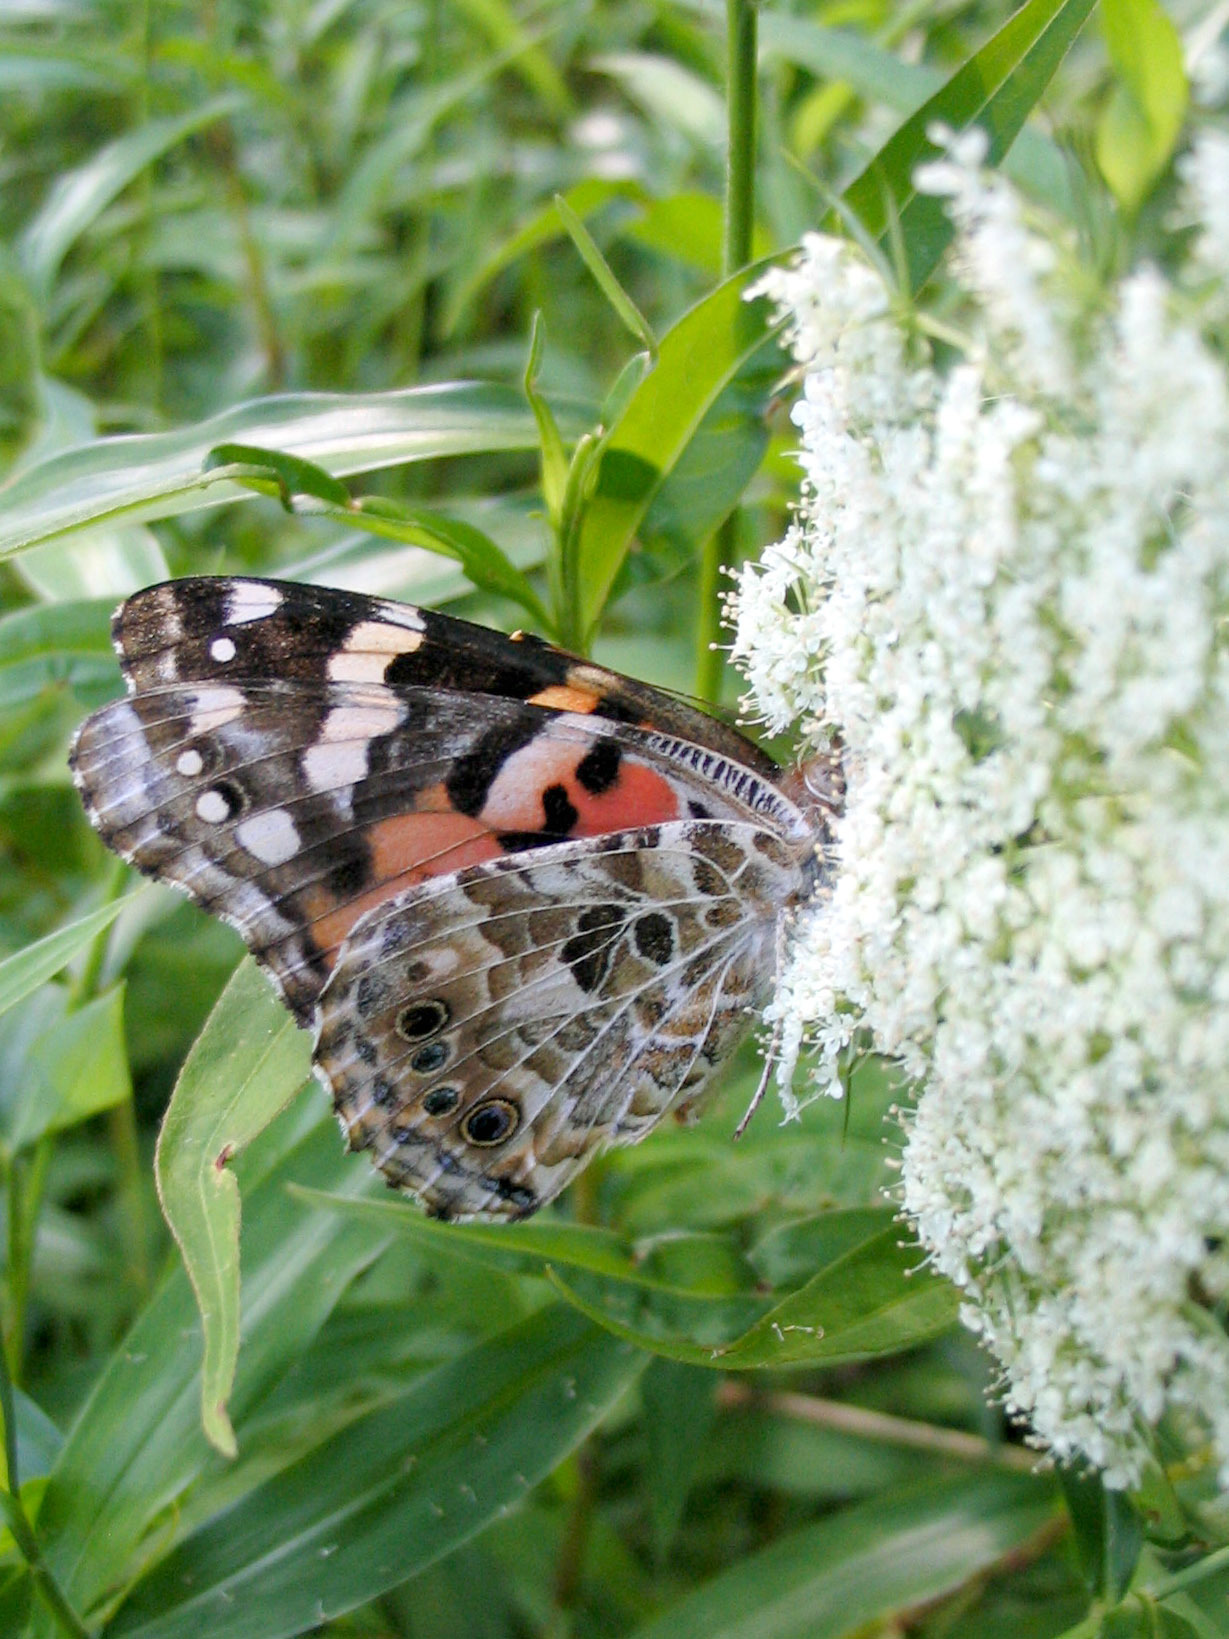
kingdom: Animalia
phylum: Arthropoda
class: Insecta
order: Lepidoptera
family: Nymphalidae
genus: Vanessa
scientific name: Vanessa cardui
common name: Painted lady
